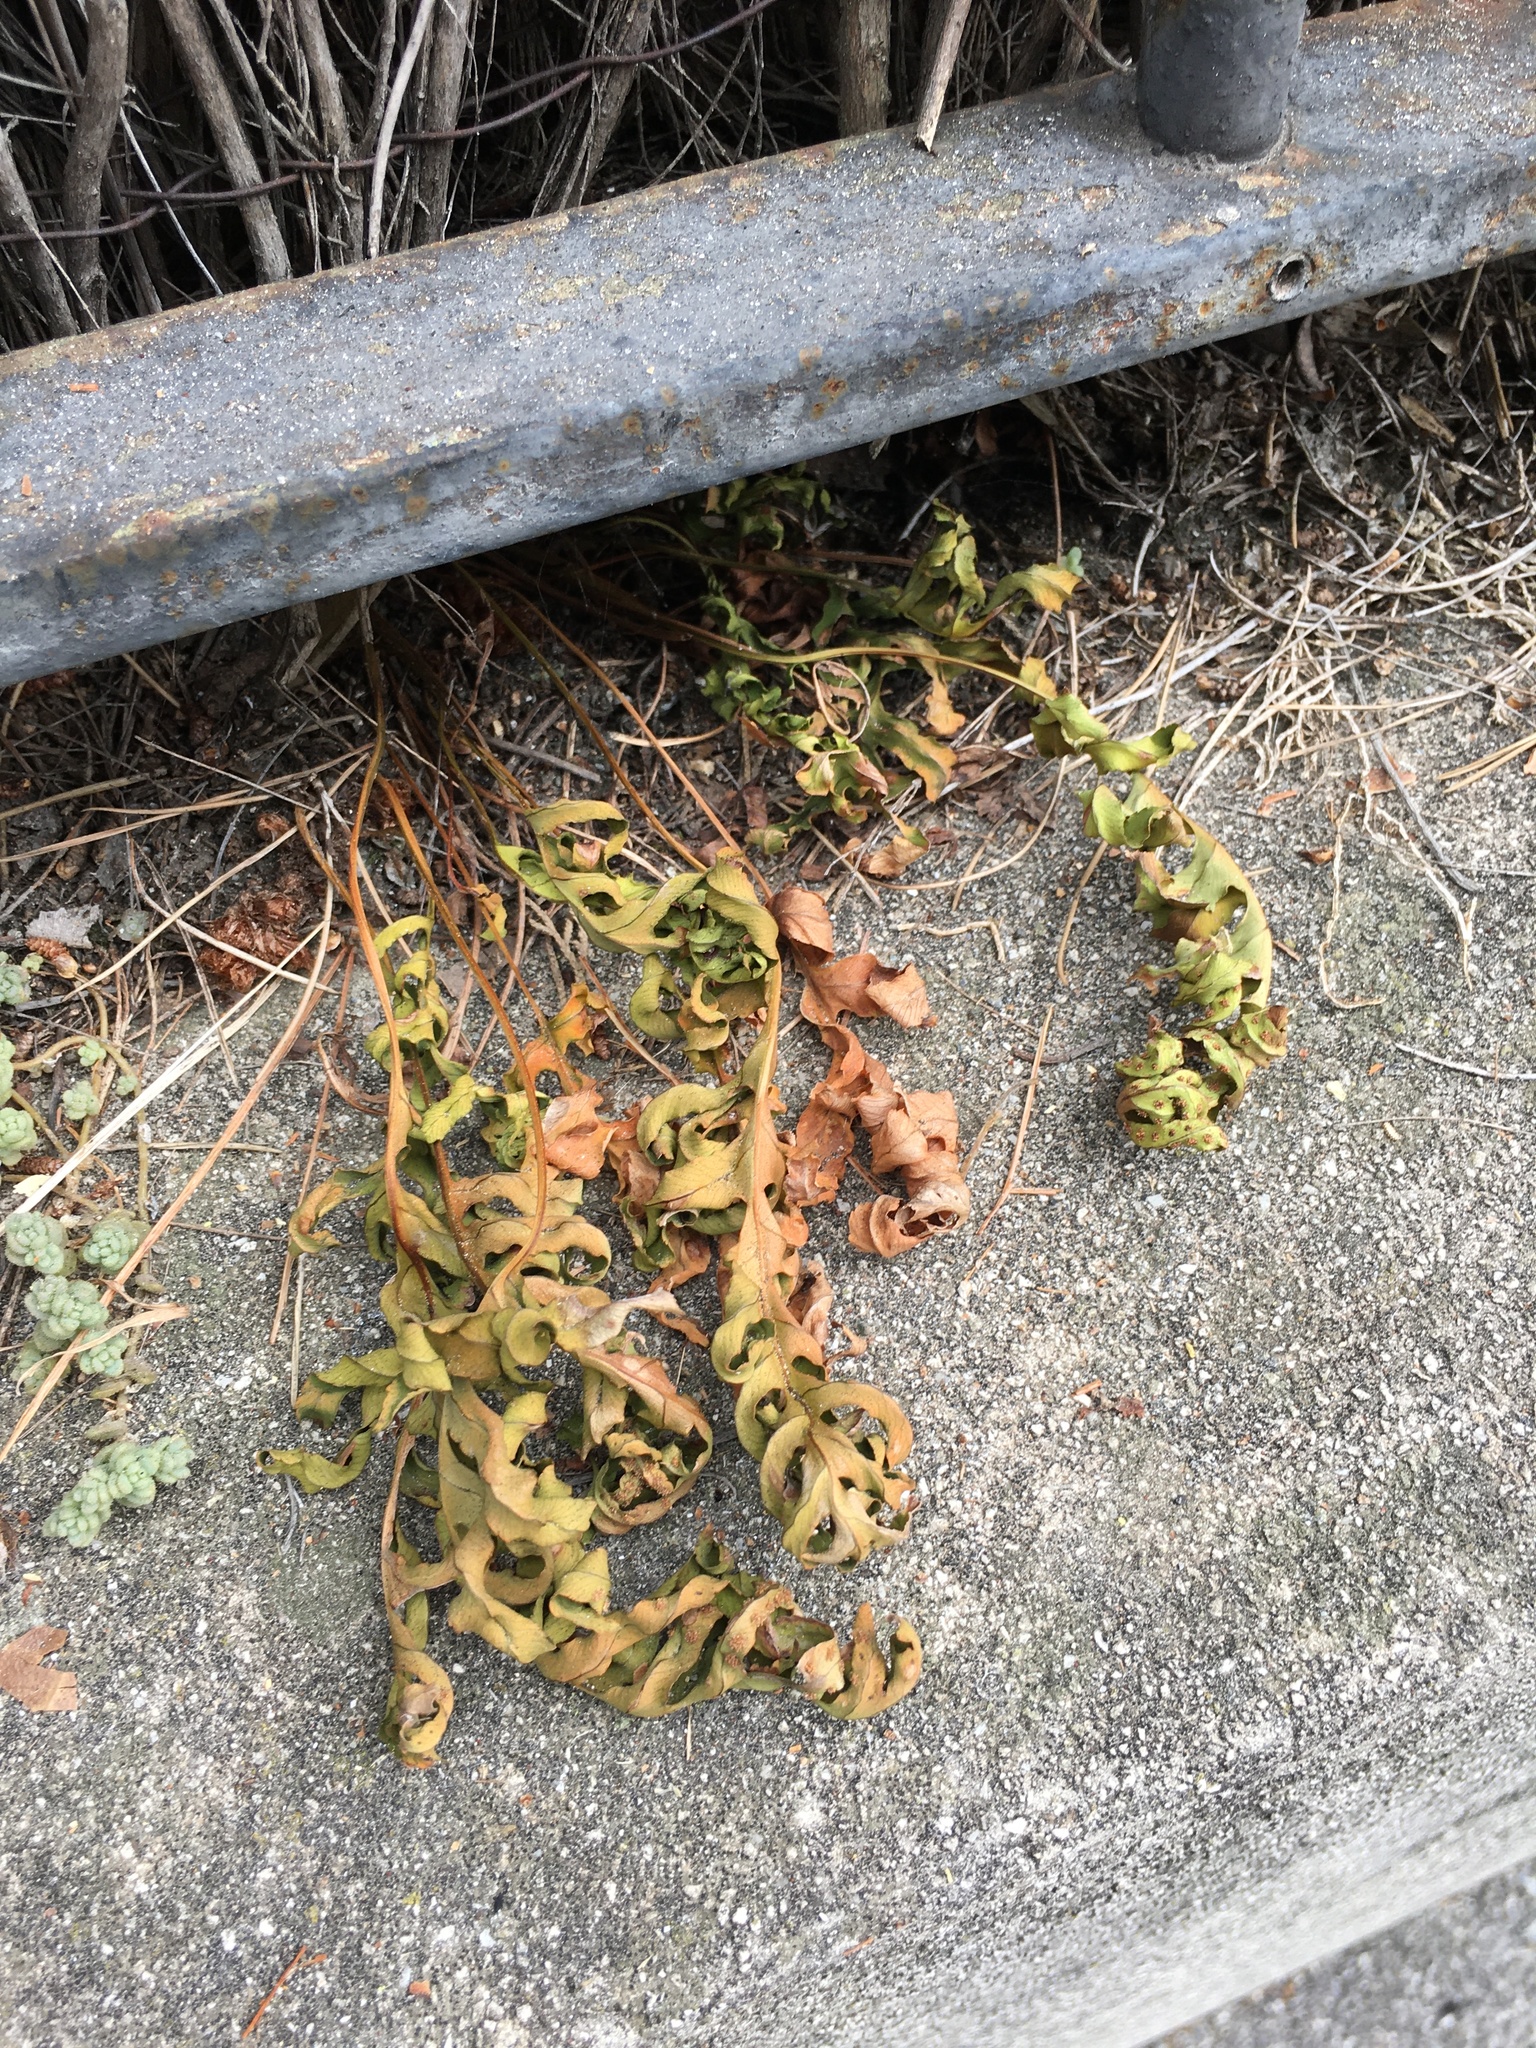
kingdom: Plantae
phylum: Tracheophyta
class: Polypodiopsida
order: Polypodiales
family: Polypodiaceae
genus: Polypodium
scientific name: Polypodium cambricum
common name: Southern polypody
